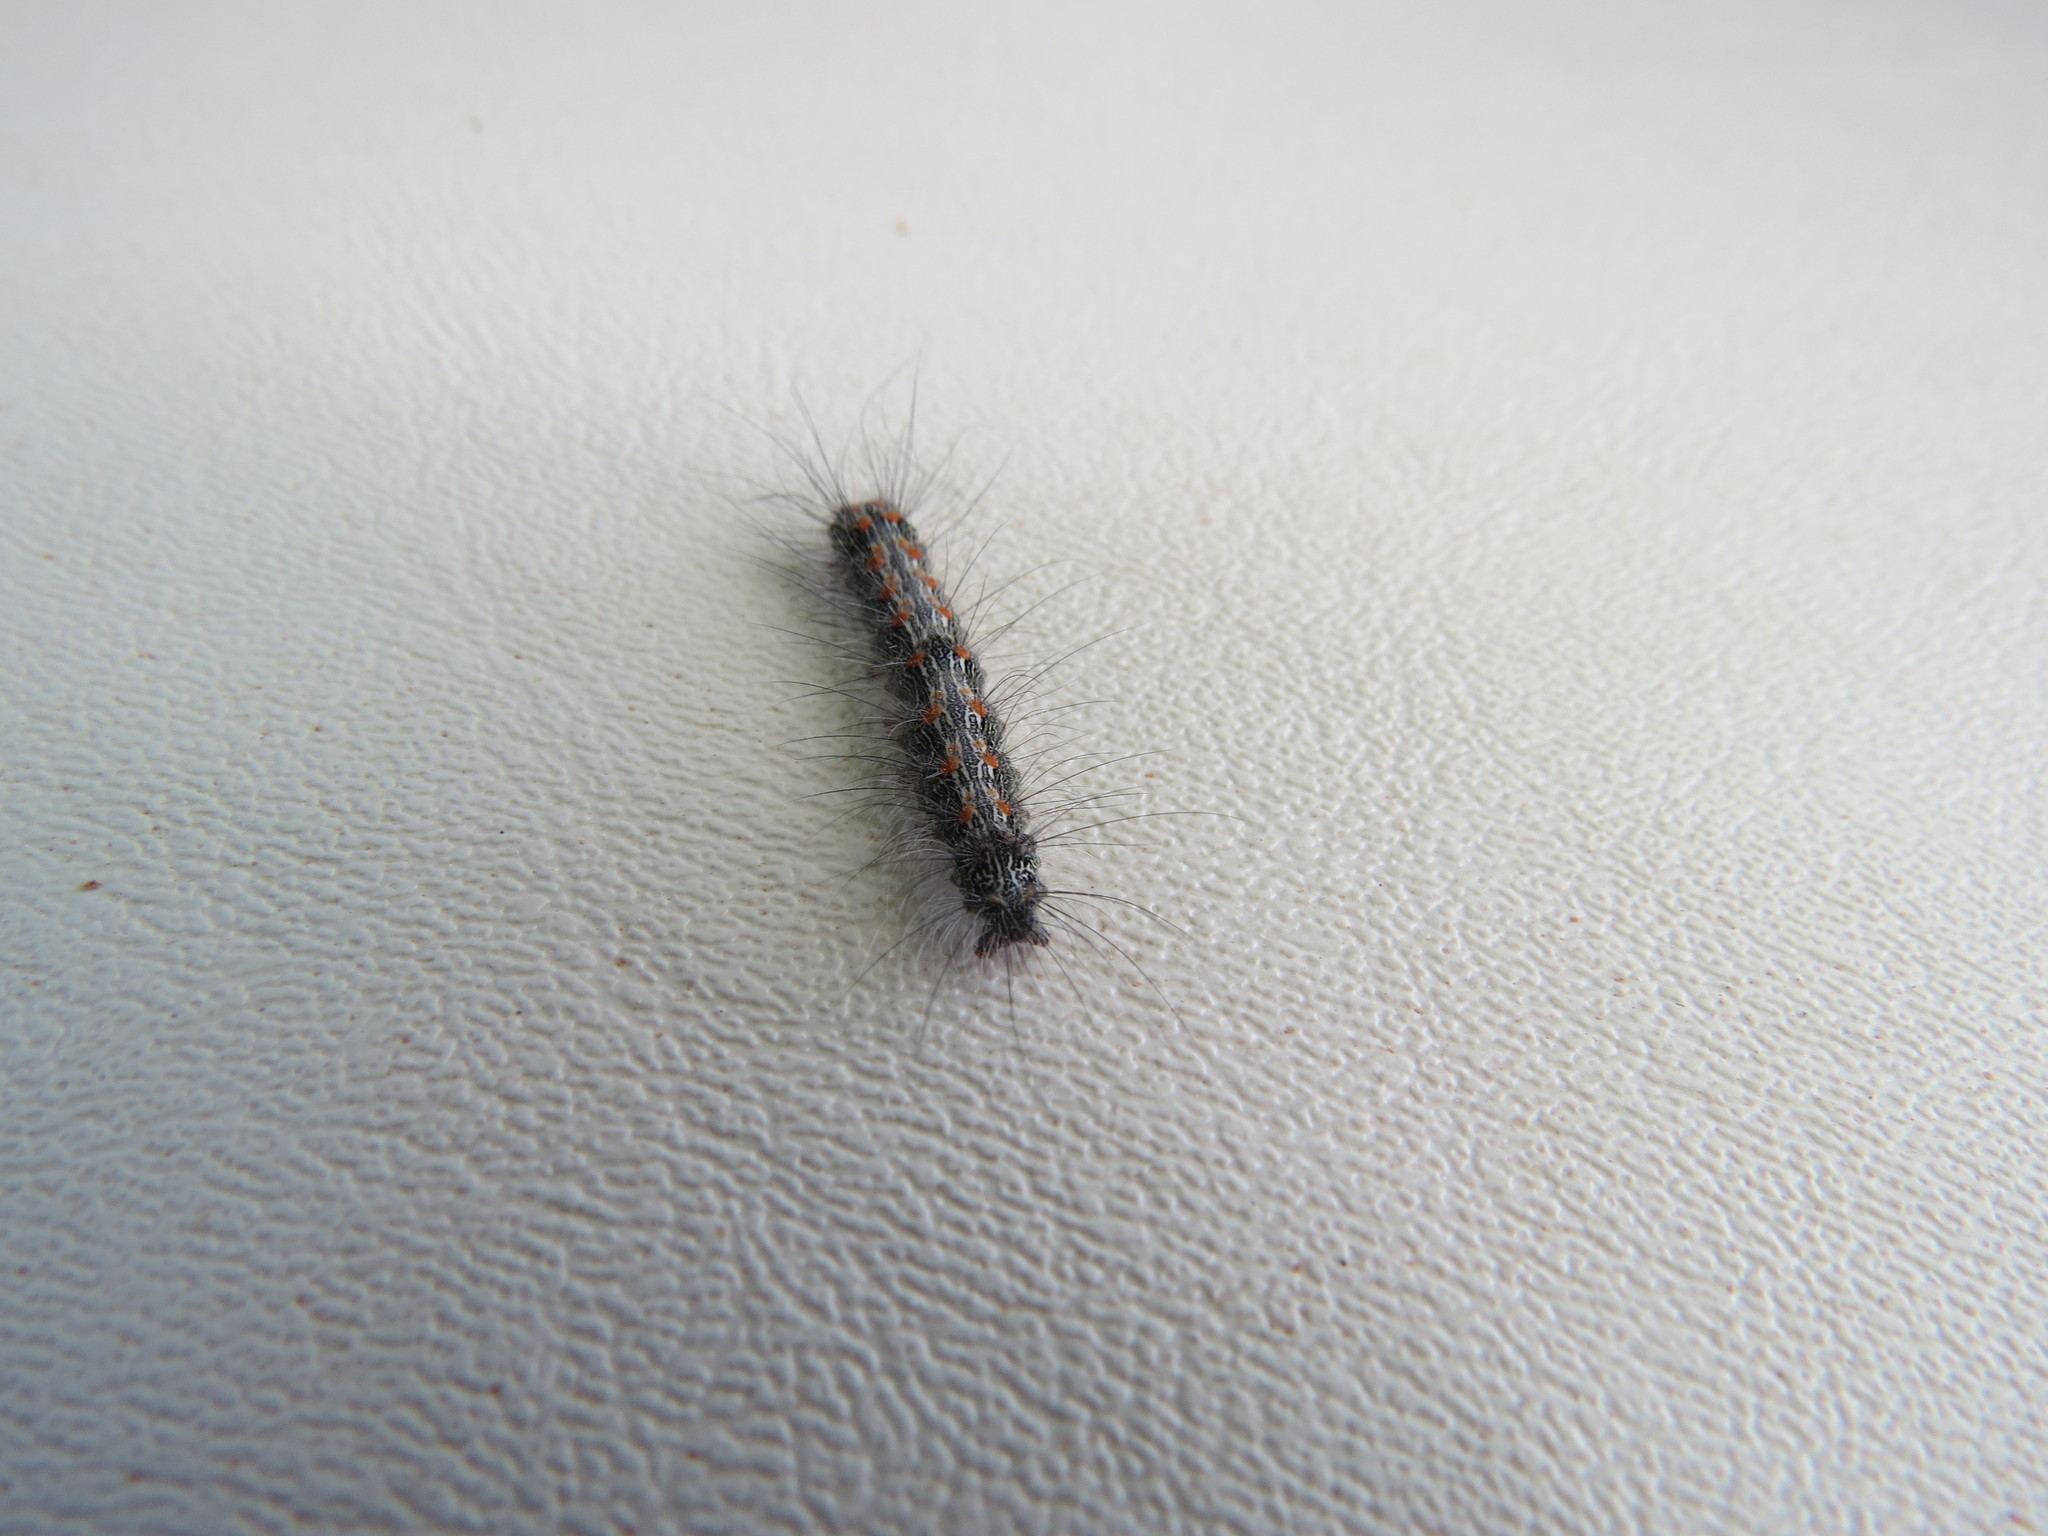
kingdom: Animalia
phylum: Arthropoda
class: Insecta
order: Lepidoptera
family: Erebidae
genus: Lithosia
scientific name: Lithosia quadra
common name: Four-spotted footman
